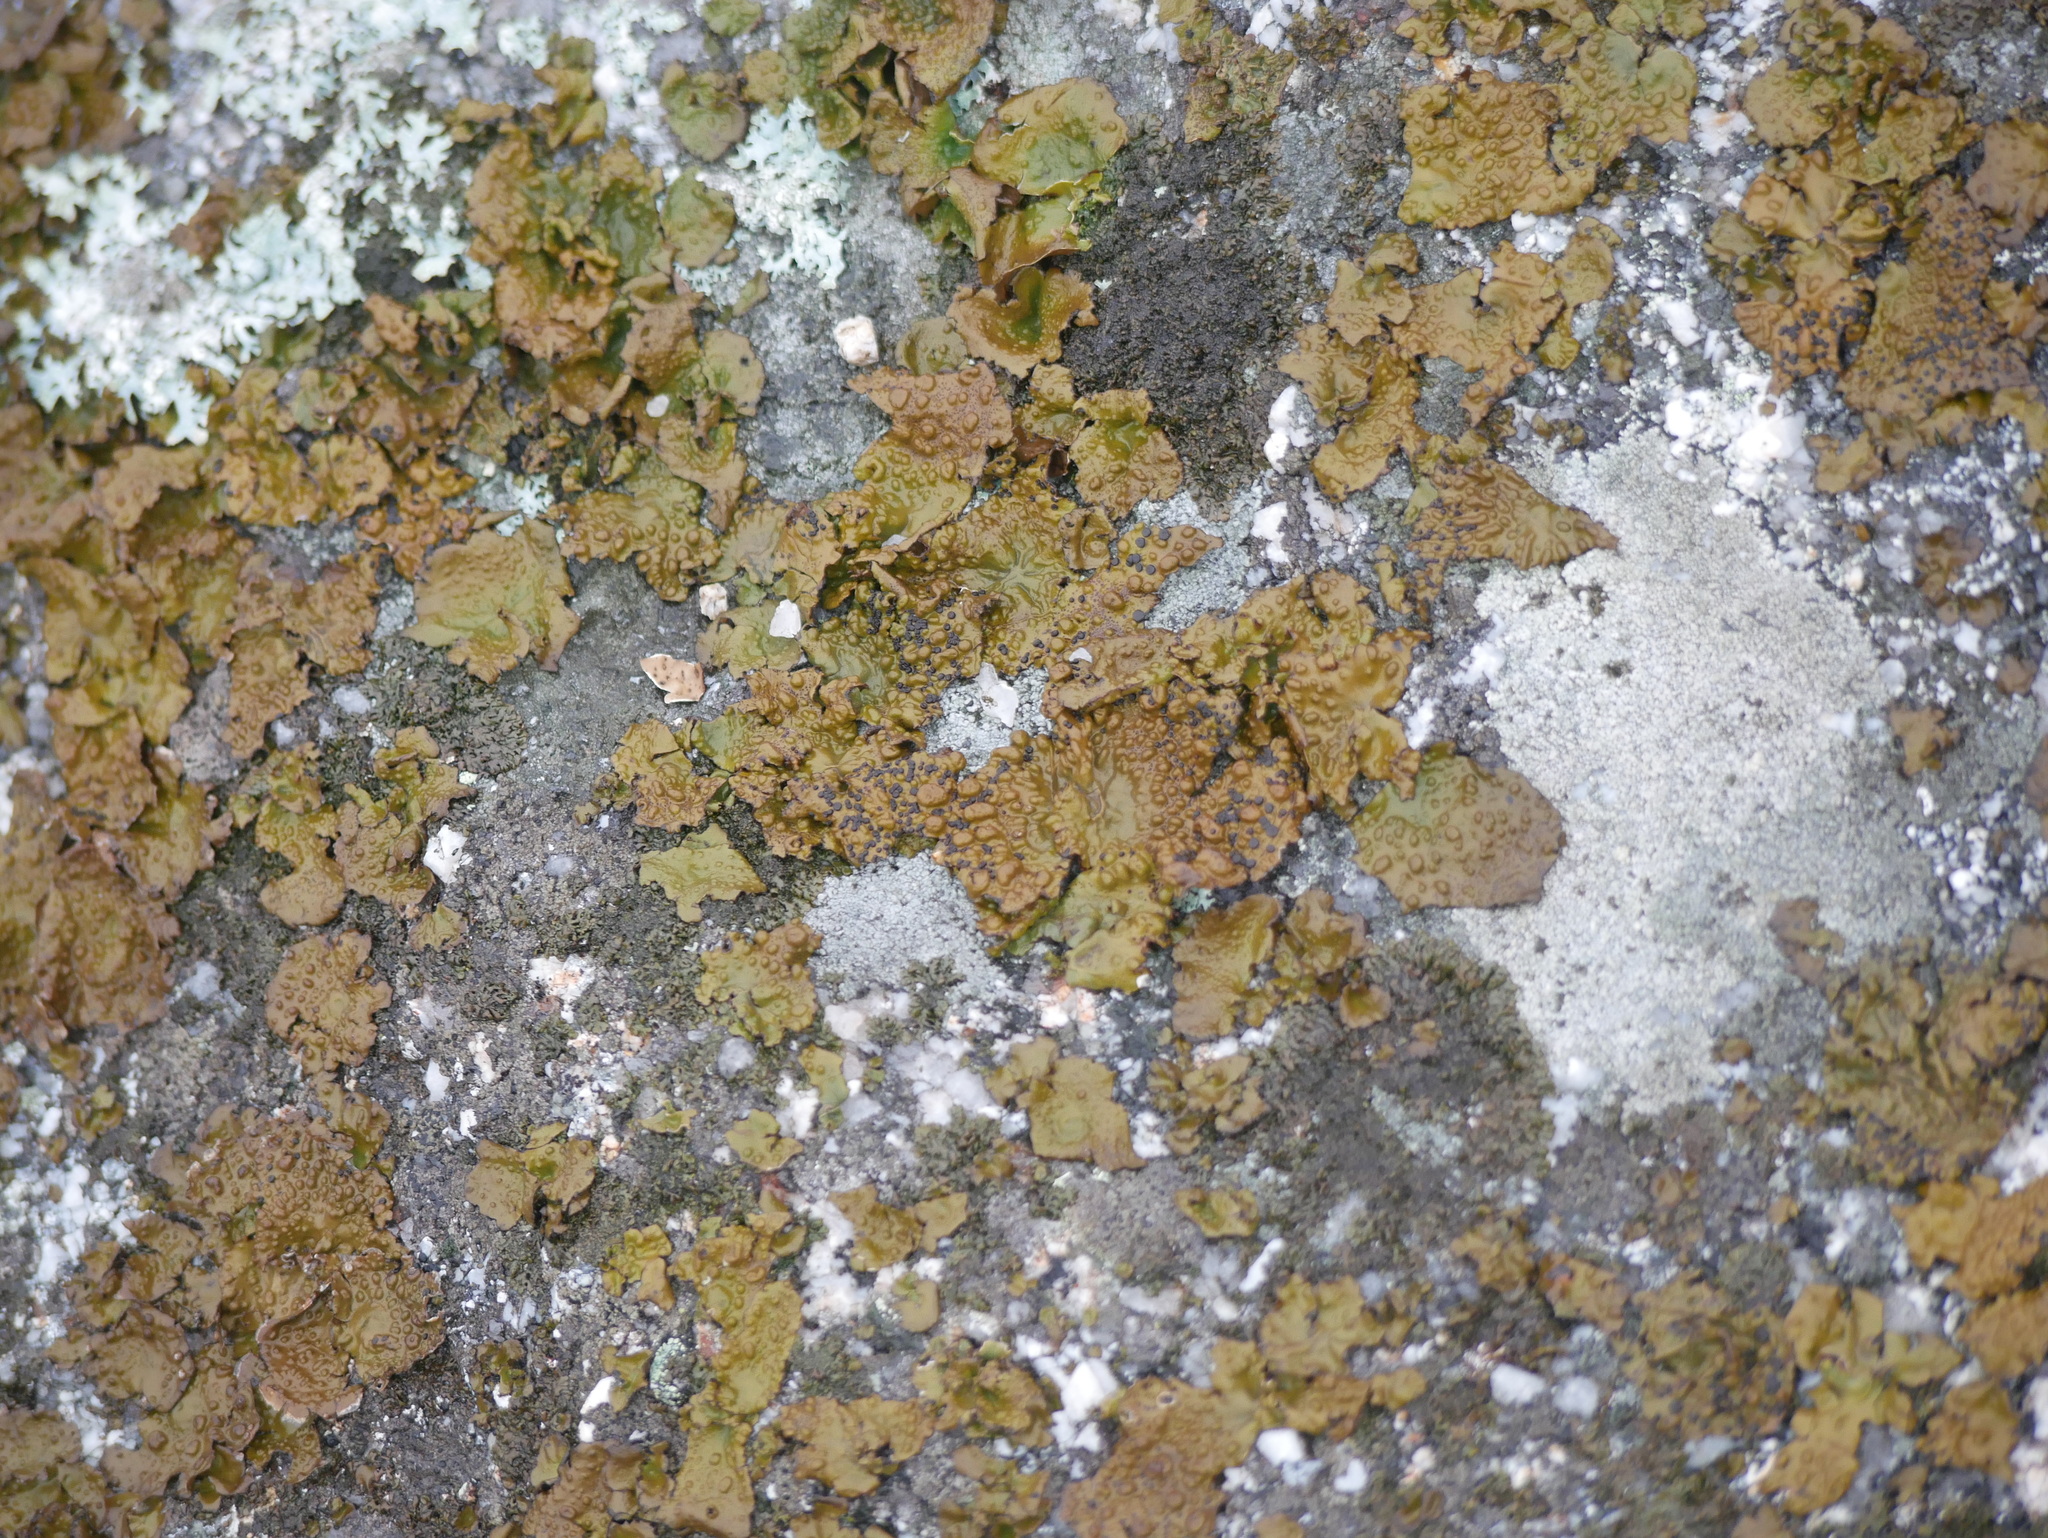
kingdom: Fungi
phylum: Ascomycota
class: Lecanoromycetes
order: Umbilicariales
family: Umbilicariaceae
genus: Lasallia
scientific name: Lasallia papulosa
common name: Common toadskin lichen
